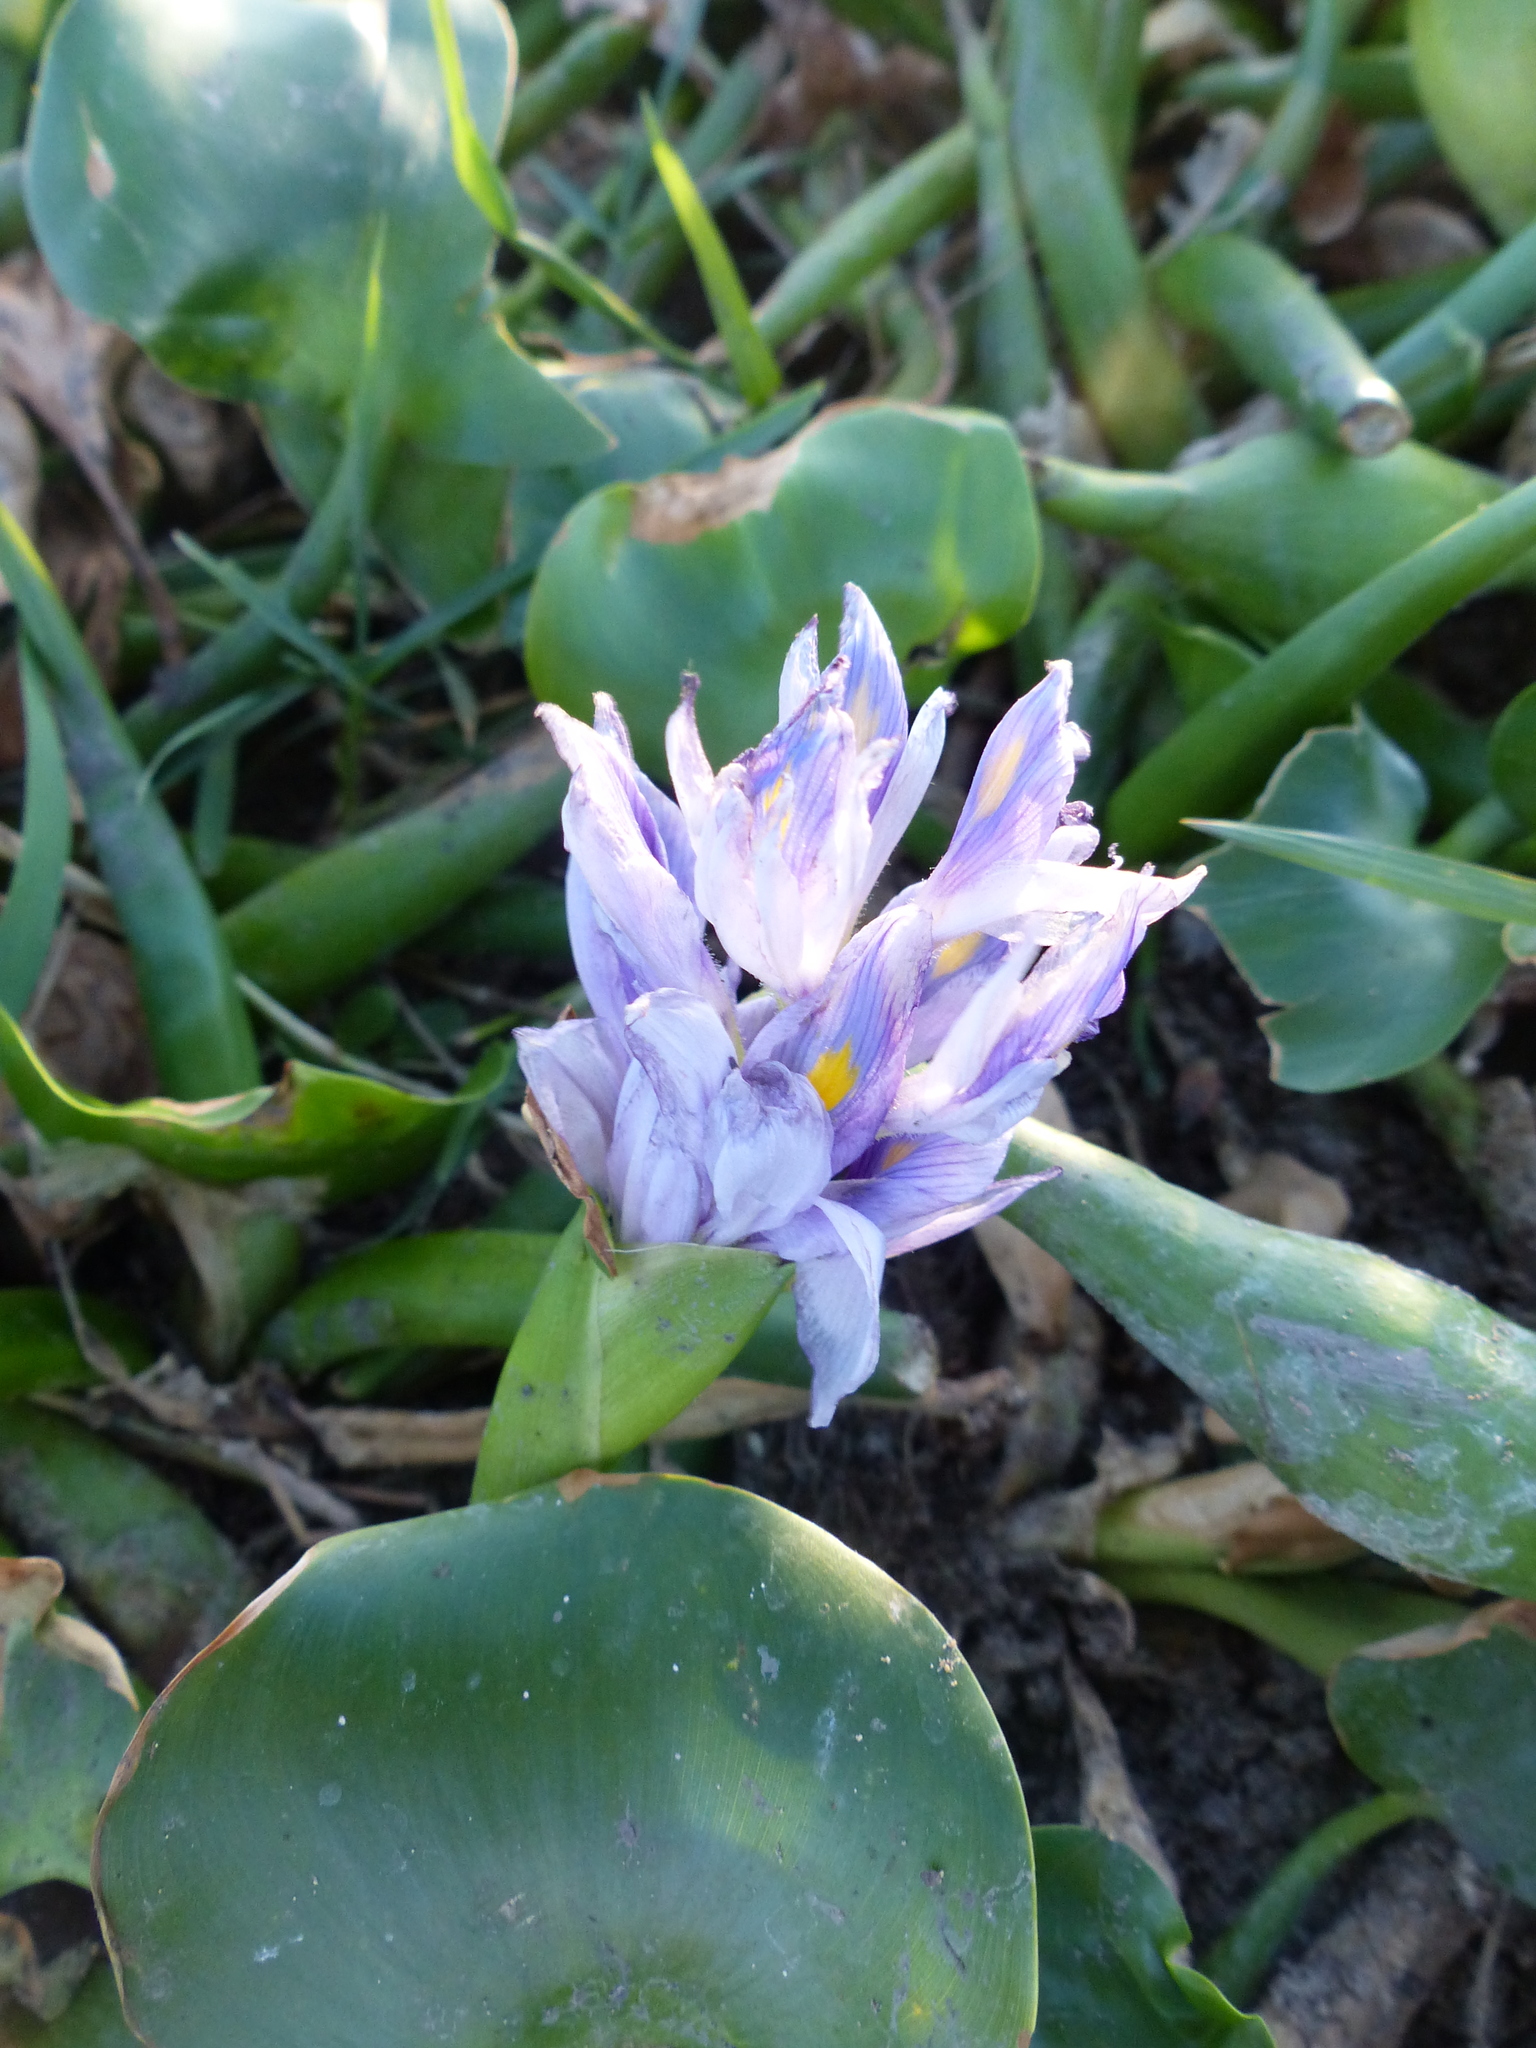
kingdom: Plantae
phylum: Tracheophyta
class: Liliopsida
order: Commelinales
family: Pontederiaceae
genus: Pontederia
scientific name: Pontederia crassipes
